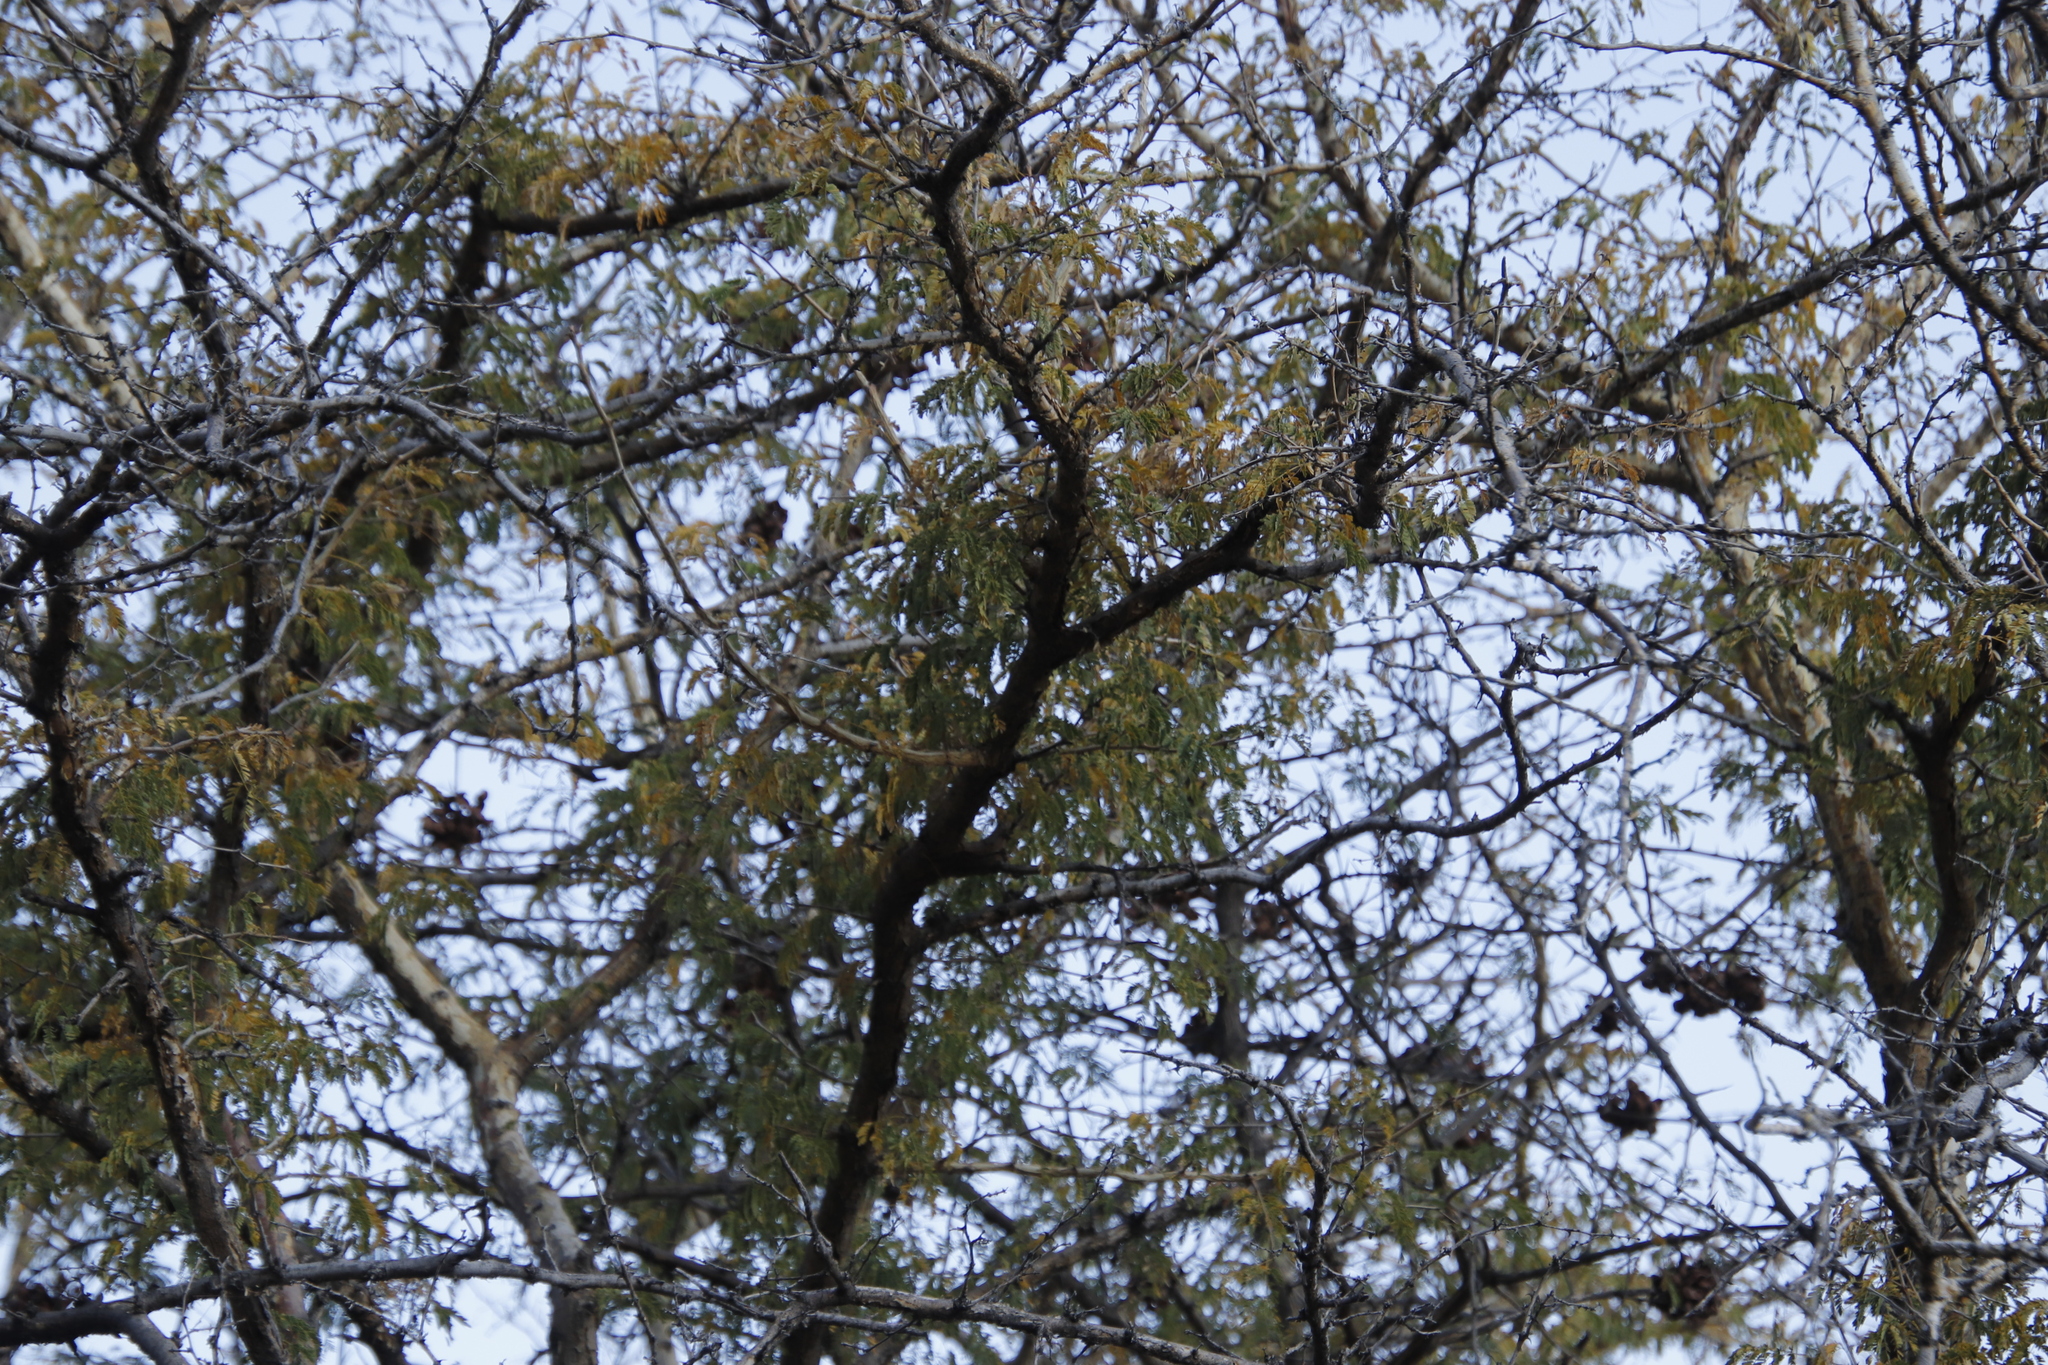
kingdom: Plantae
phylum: Tracheophyta
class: Magnoliopsida
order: Fabales
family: Fabaceae
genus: Dichrostachys
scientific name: Dichrostachys cinerea
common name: Sicklebush
